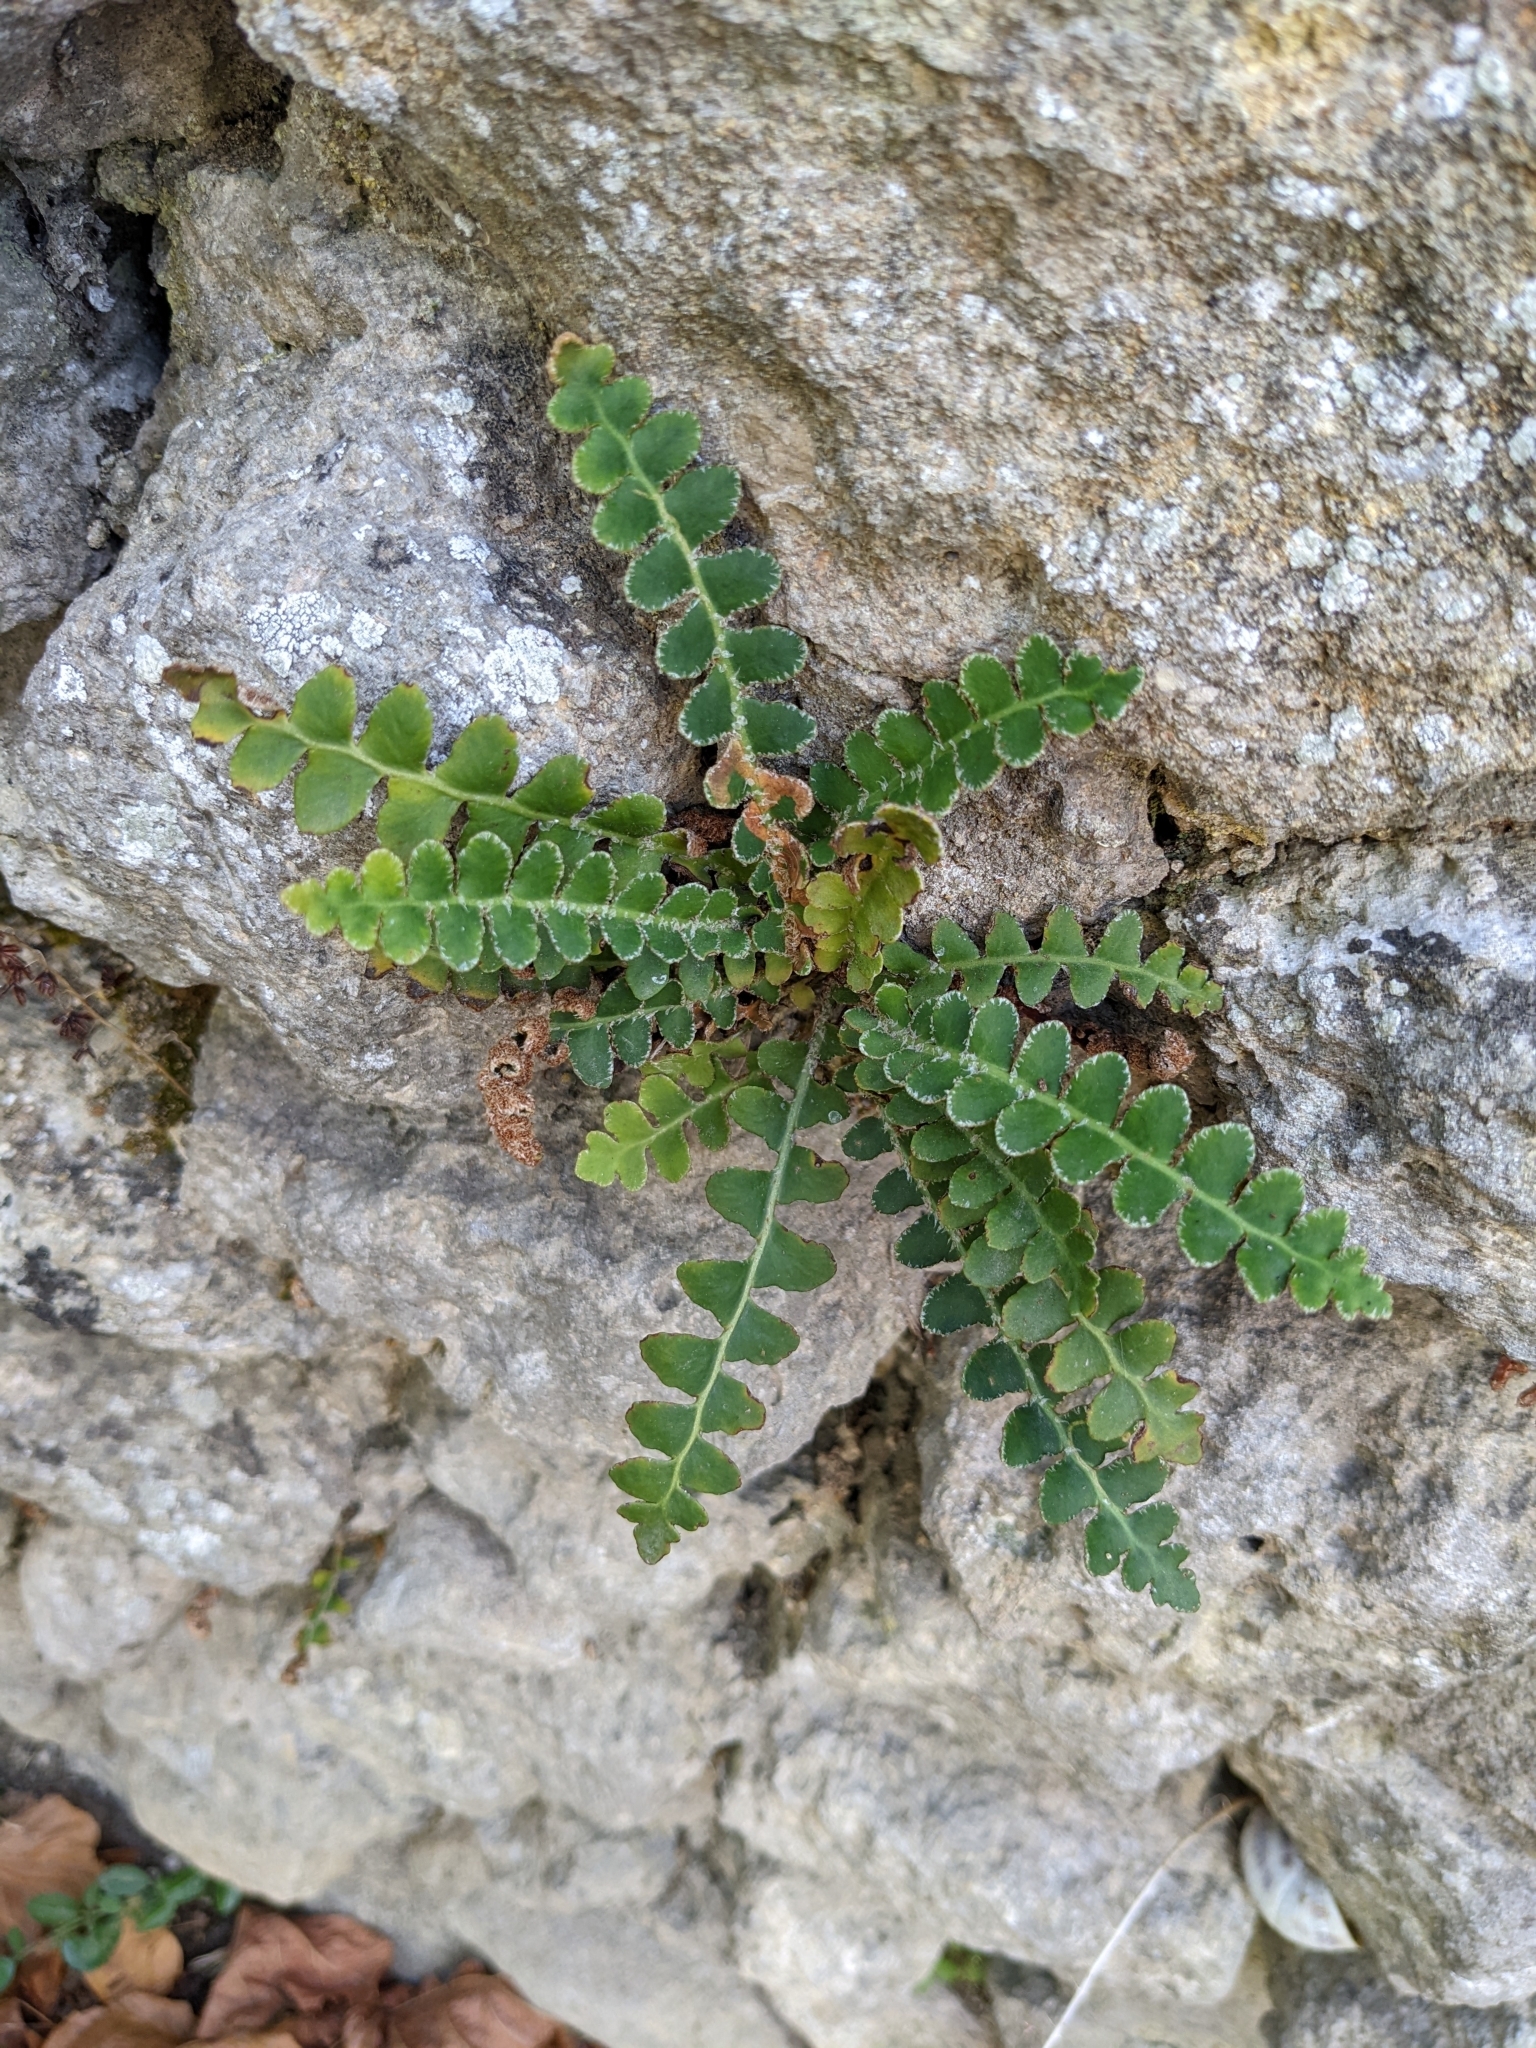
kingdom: Plantae
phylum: Tracheophyta
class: Polypodiopsida
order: Polypodiales
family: Aspleniaceae
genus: Asplenium
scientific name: Asplenium ceterach
